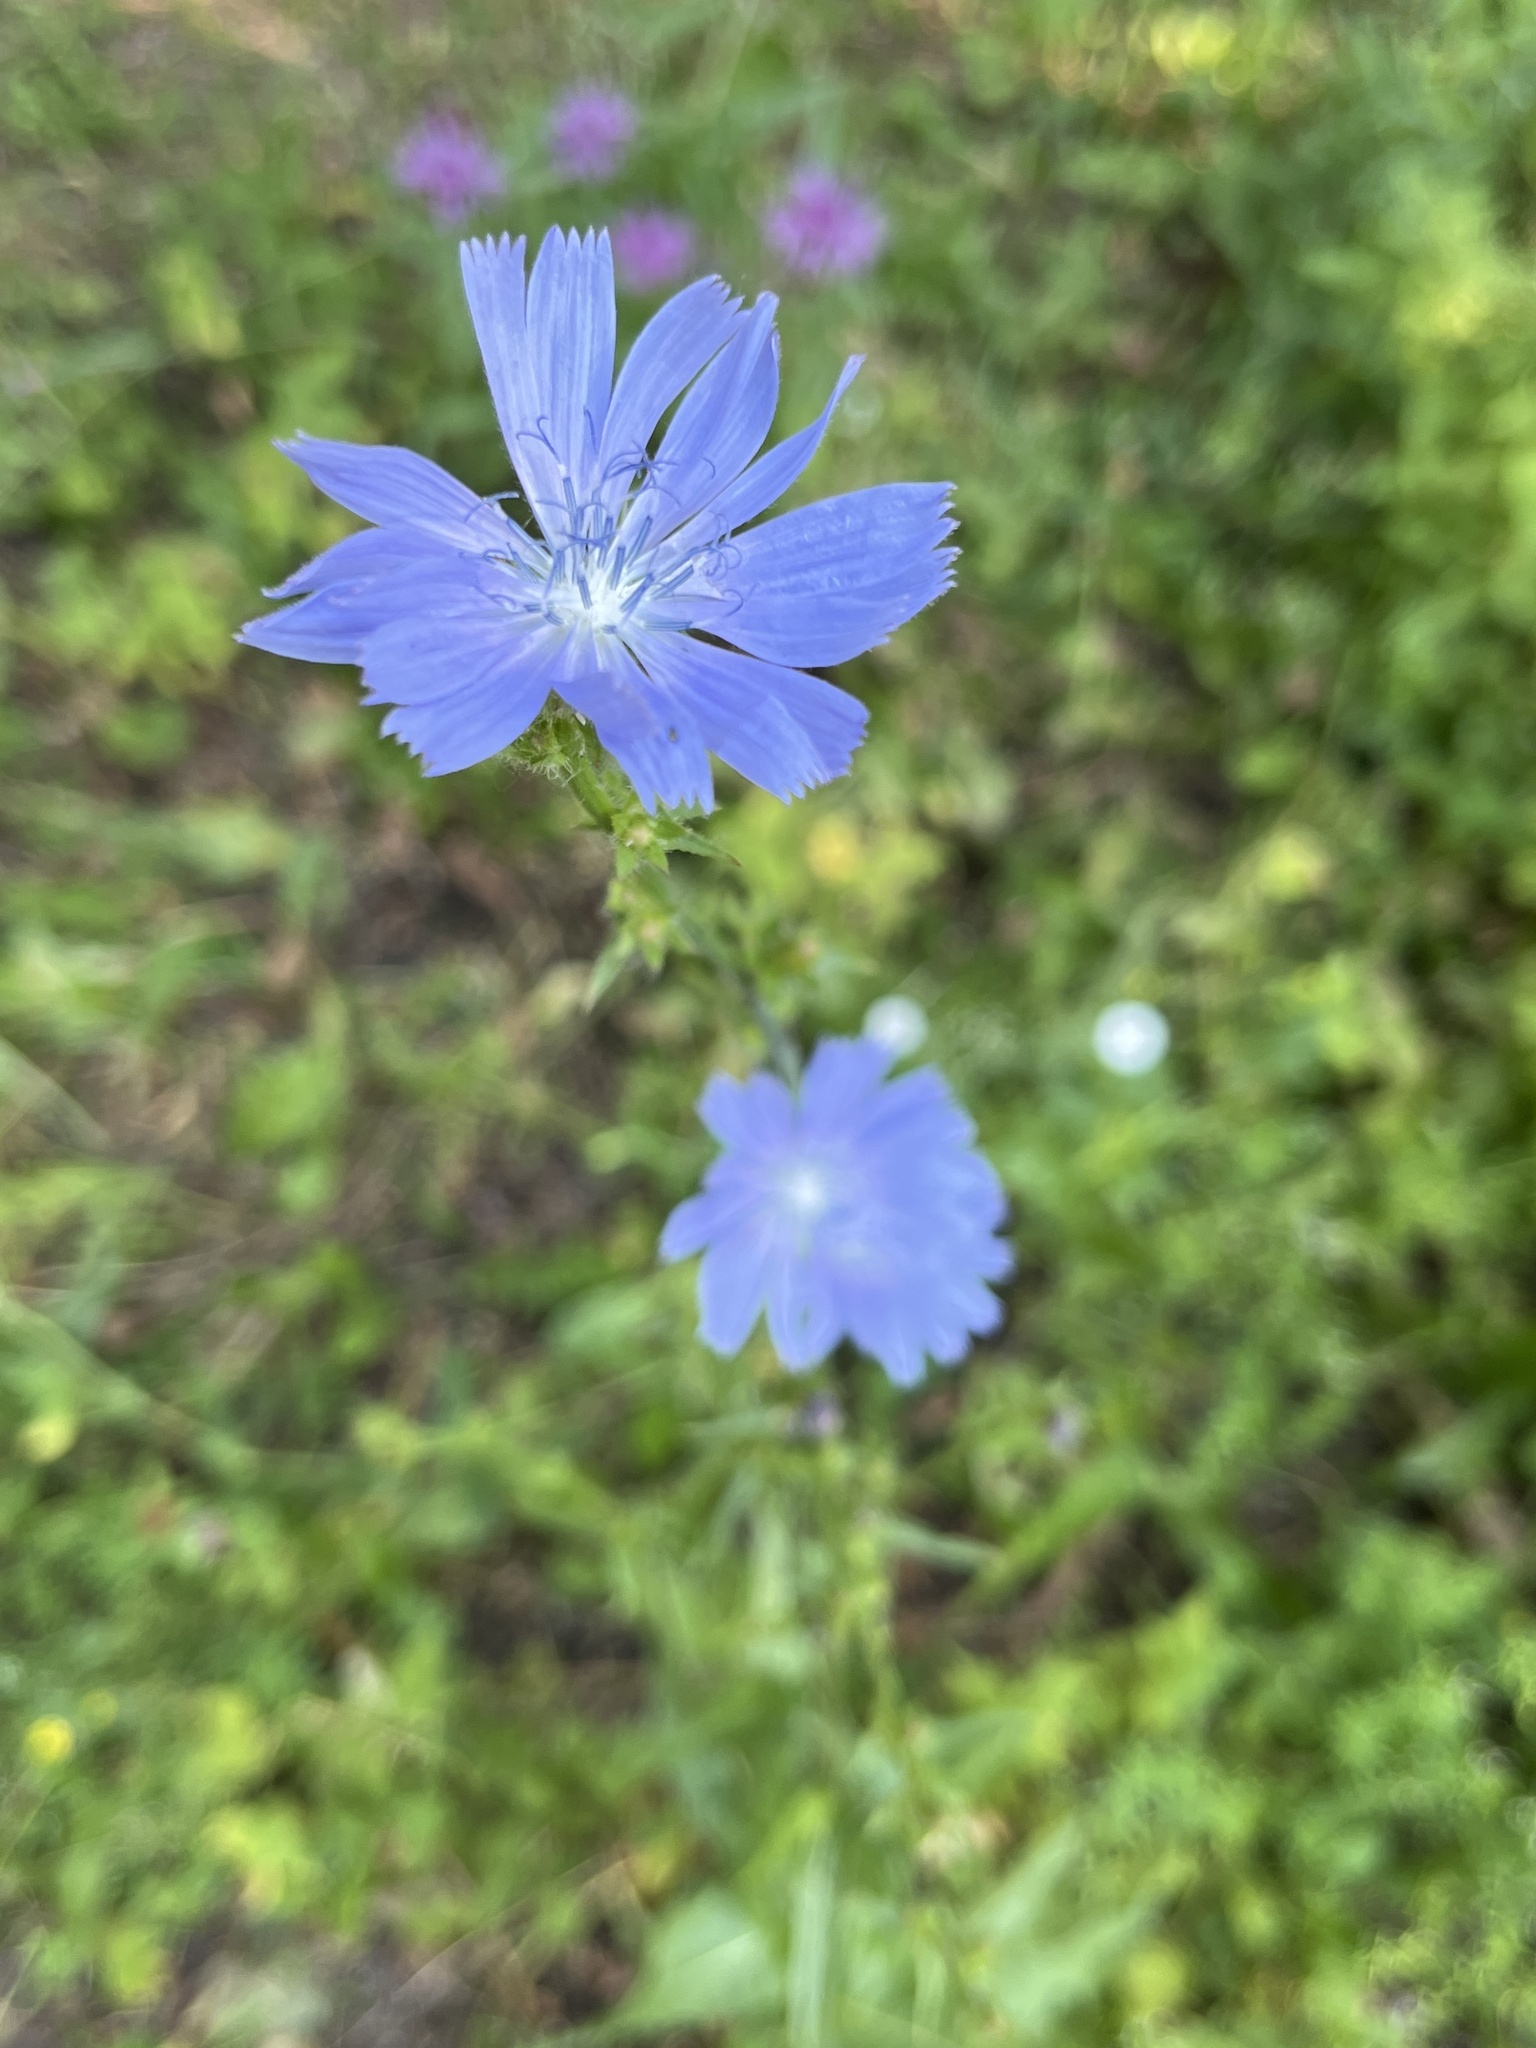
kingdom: Plantae
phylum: Tracheophyta
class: Magnoliopsida
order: Asterales
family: Asteraceae
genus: Cichorium
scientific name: Cichorium intybus
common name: Chicory
